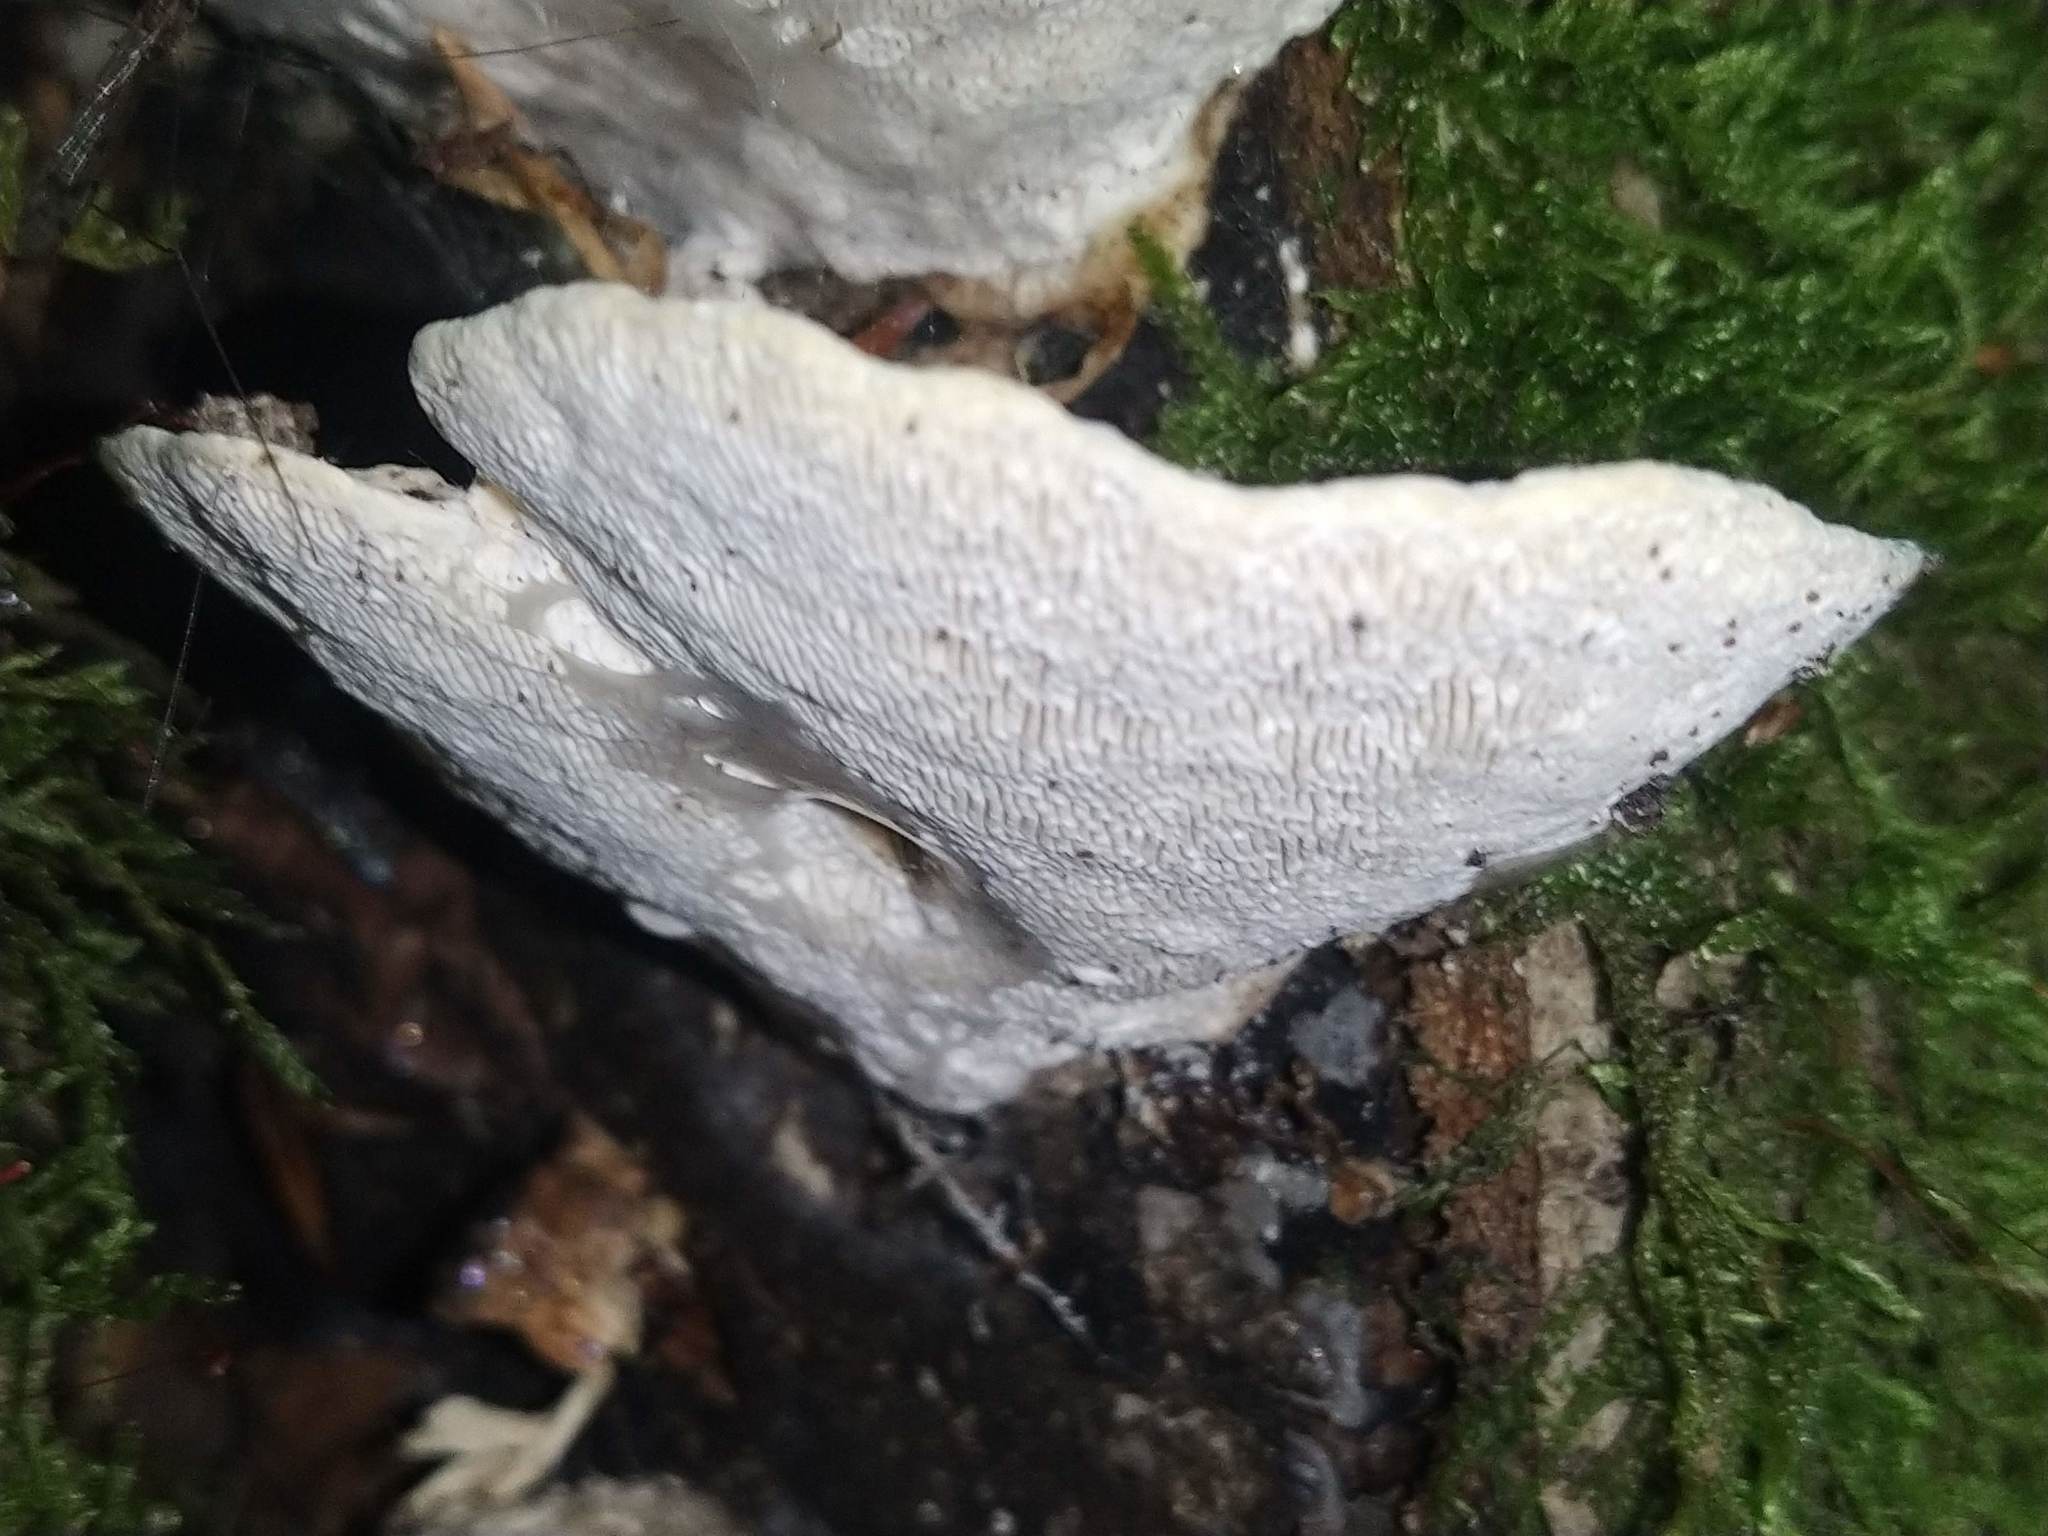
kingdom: Fungi
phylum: Basidiomycota
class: Agaricomycetes
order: Polyporales
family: Polyporaceae
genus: Trametes
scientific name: Trametes gibbosa
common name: Lumpy bracket
